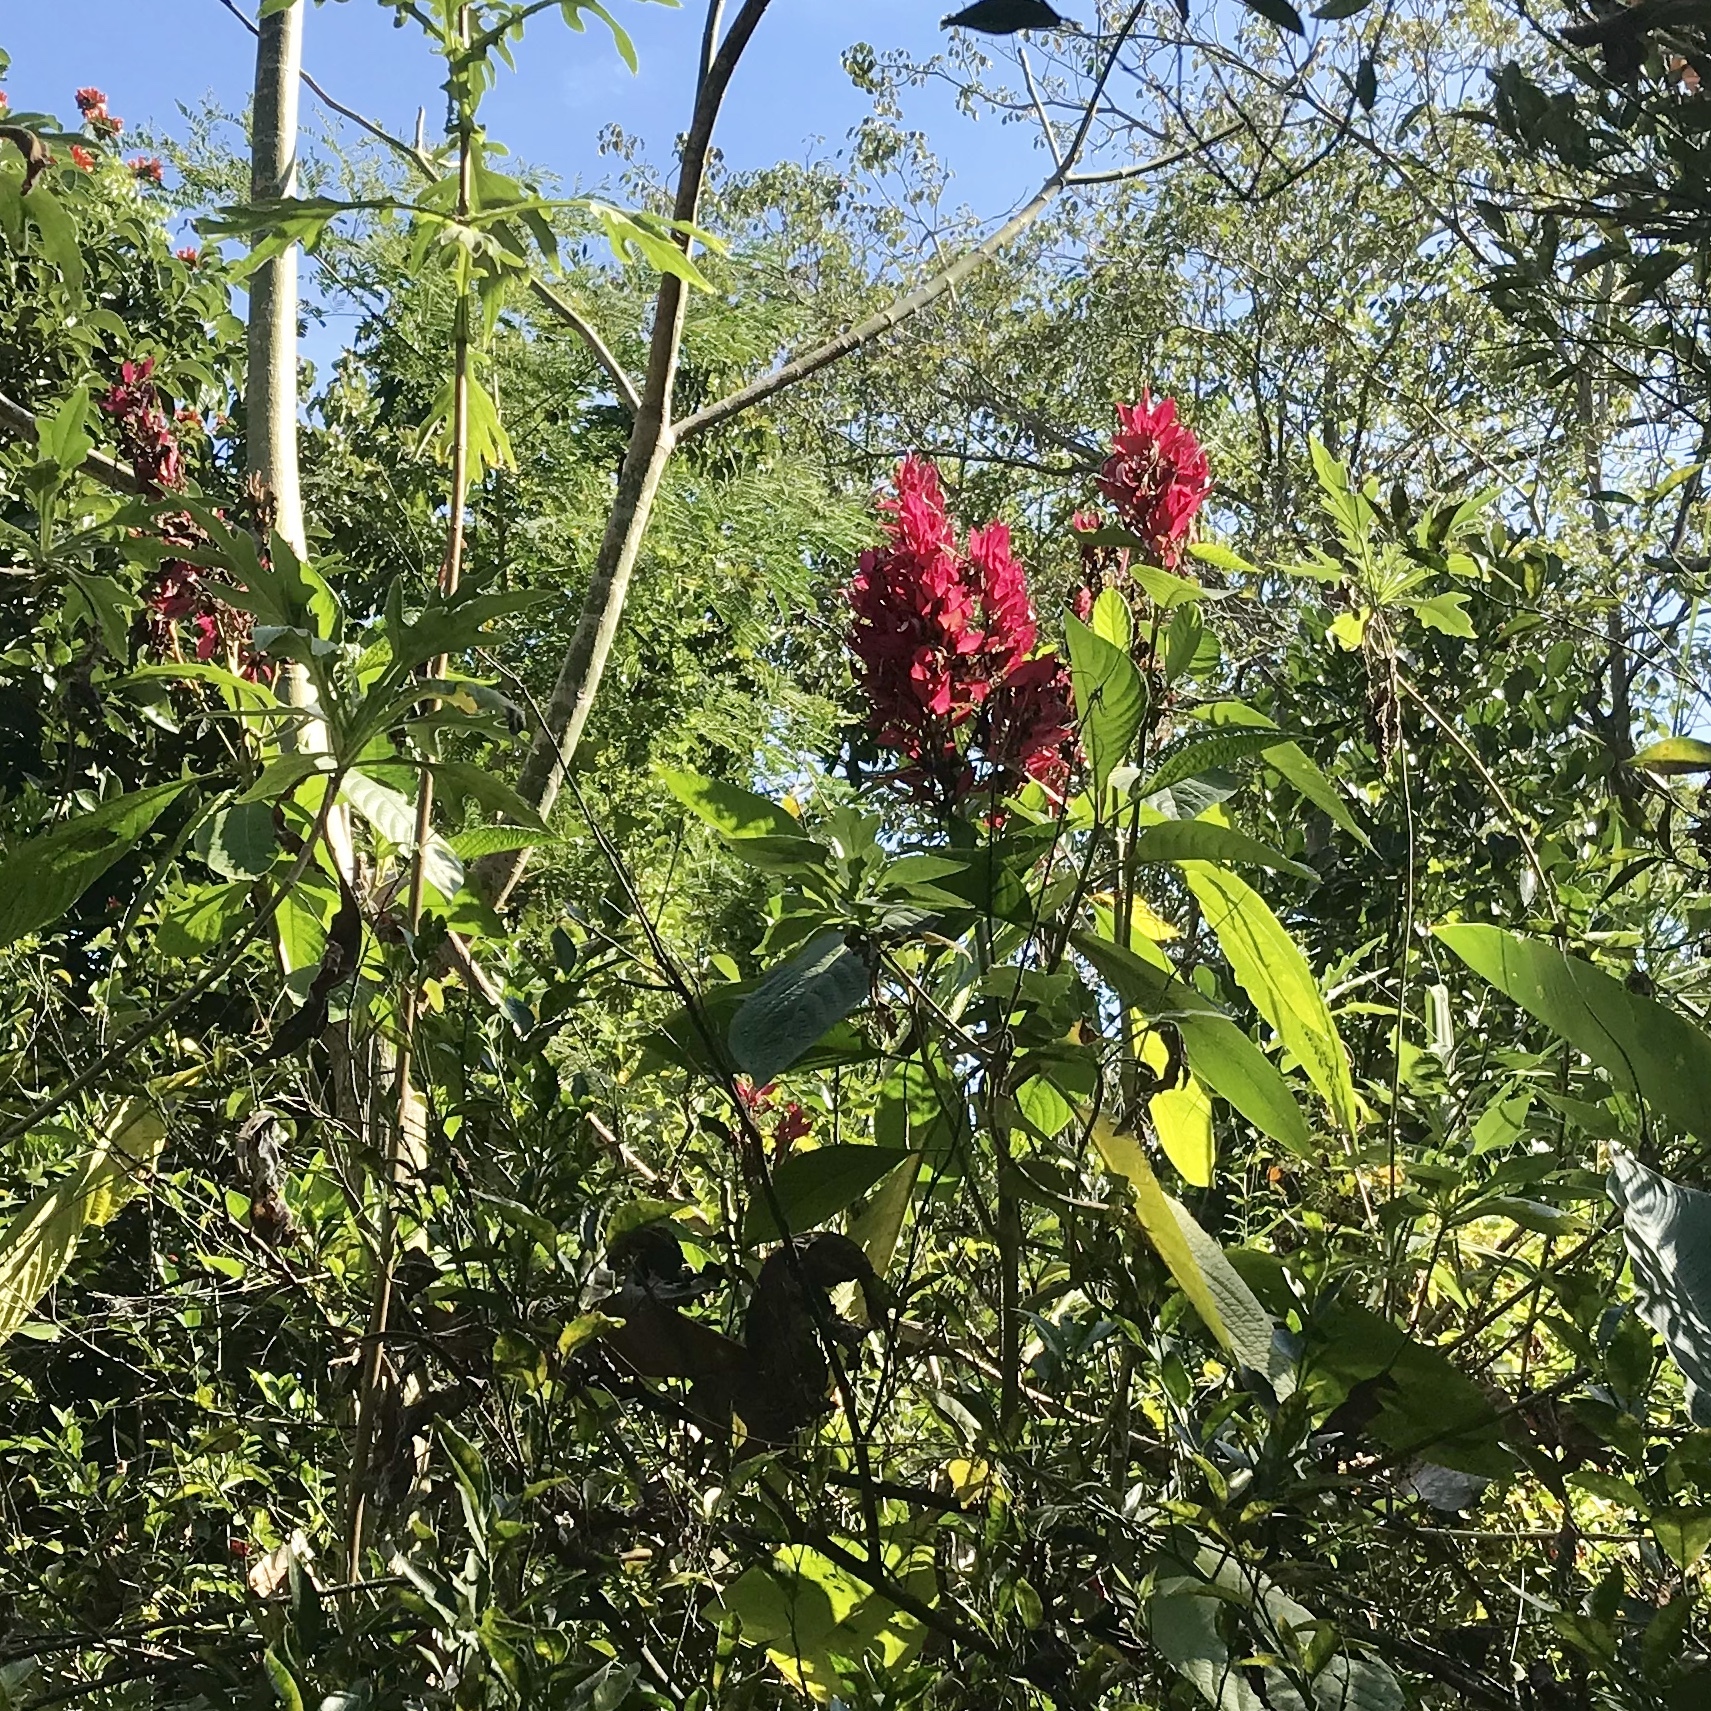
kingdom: Plantae
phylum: Tracheophyta
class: Magnoliopsida
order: Lamiales
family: Acanthaceae
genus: Megaskepasma
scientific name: Megaskepasma erythrochlamys
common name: Brazilian red-cloak
